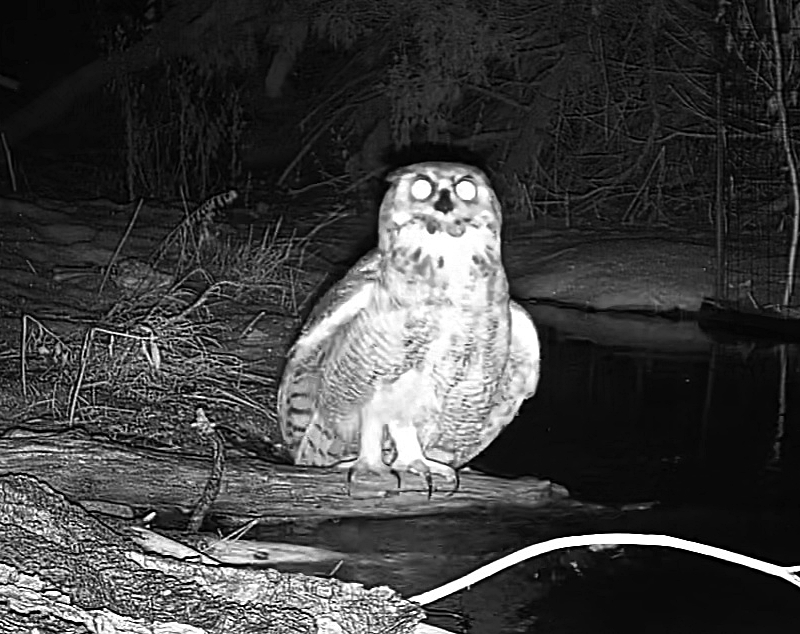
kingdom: Animalia
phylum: Chordata
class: Aves
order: Strigiformes
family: Strigidae
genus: Bubo
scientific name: Bubo virginianus
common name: Great horned owl
